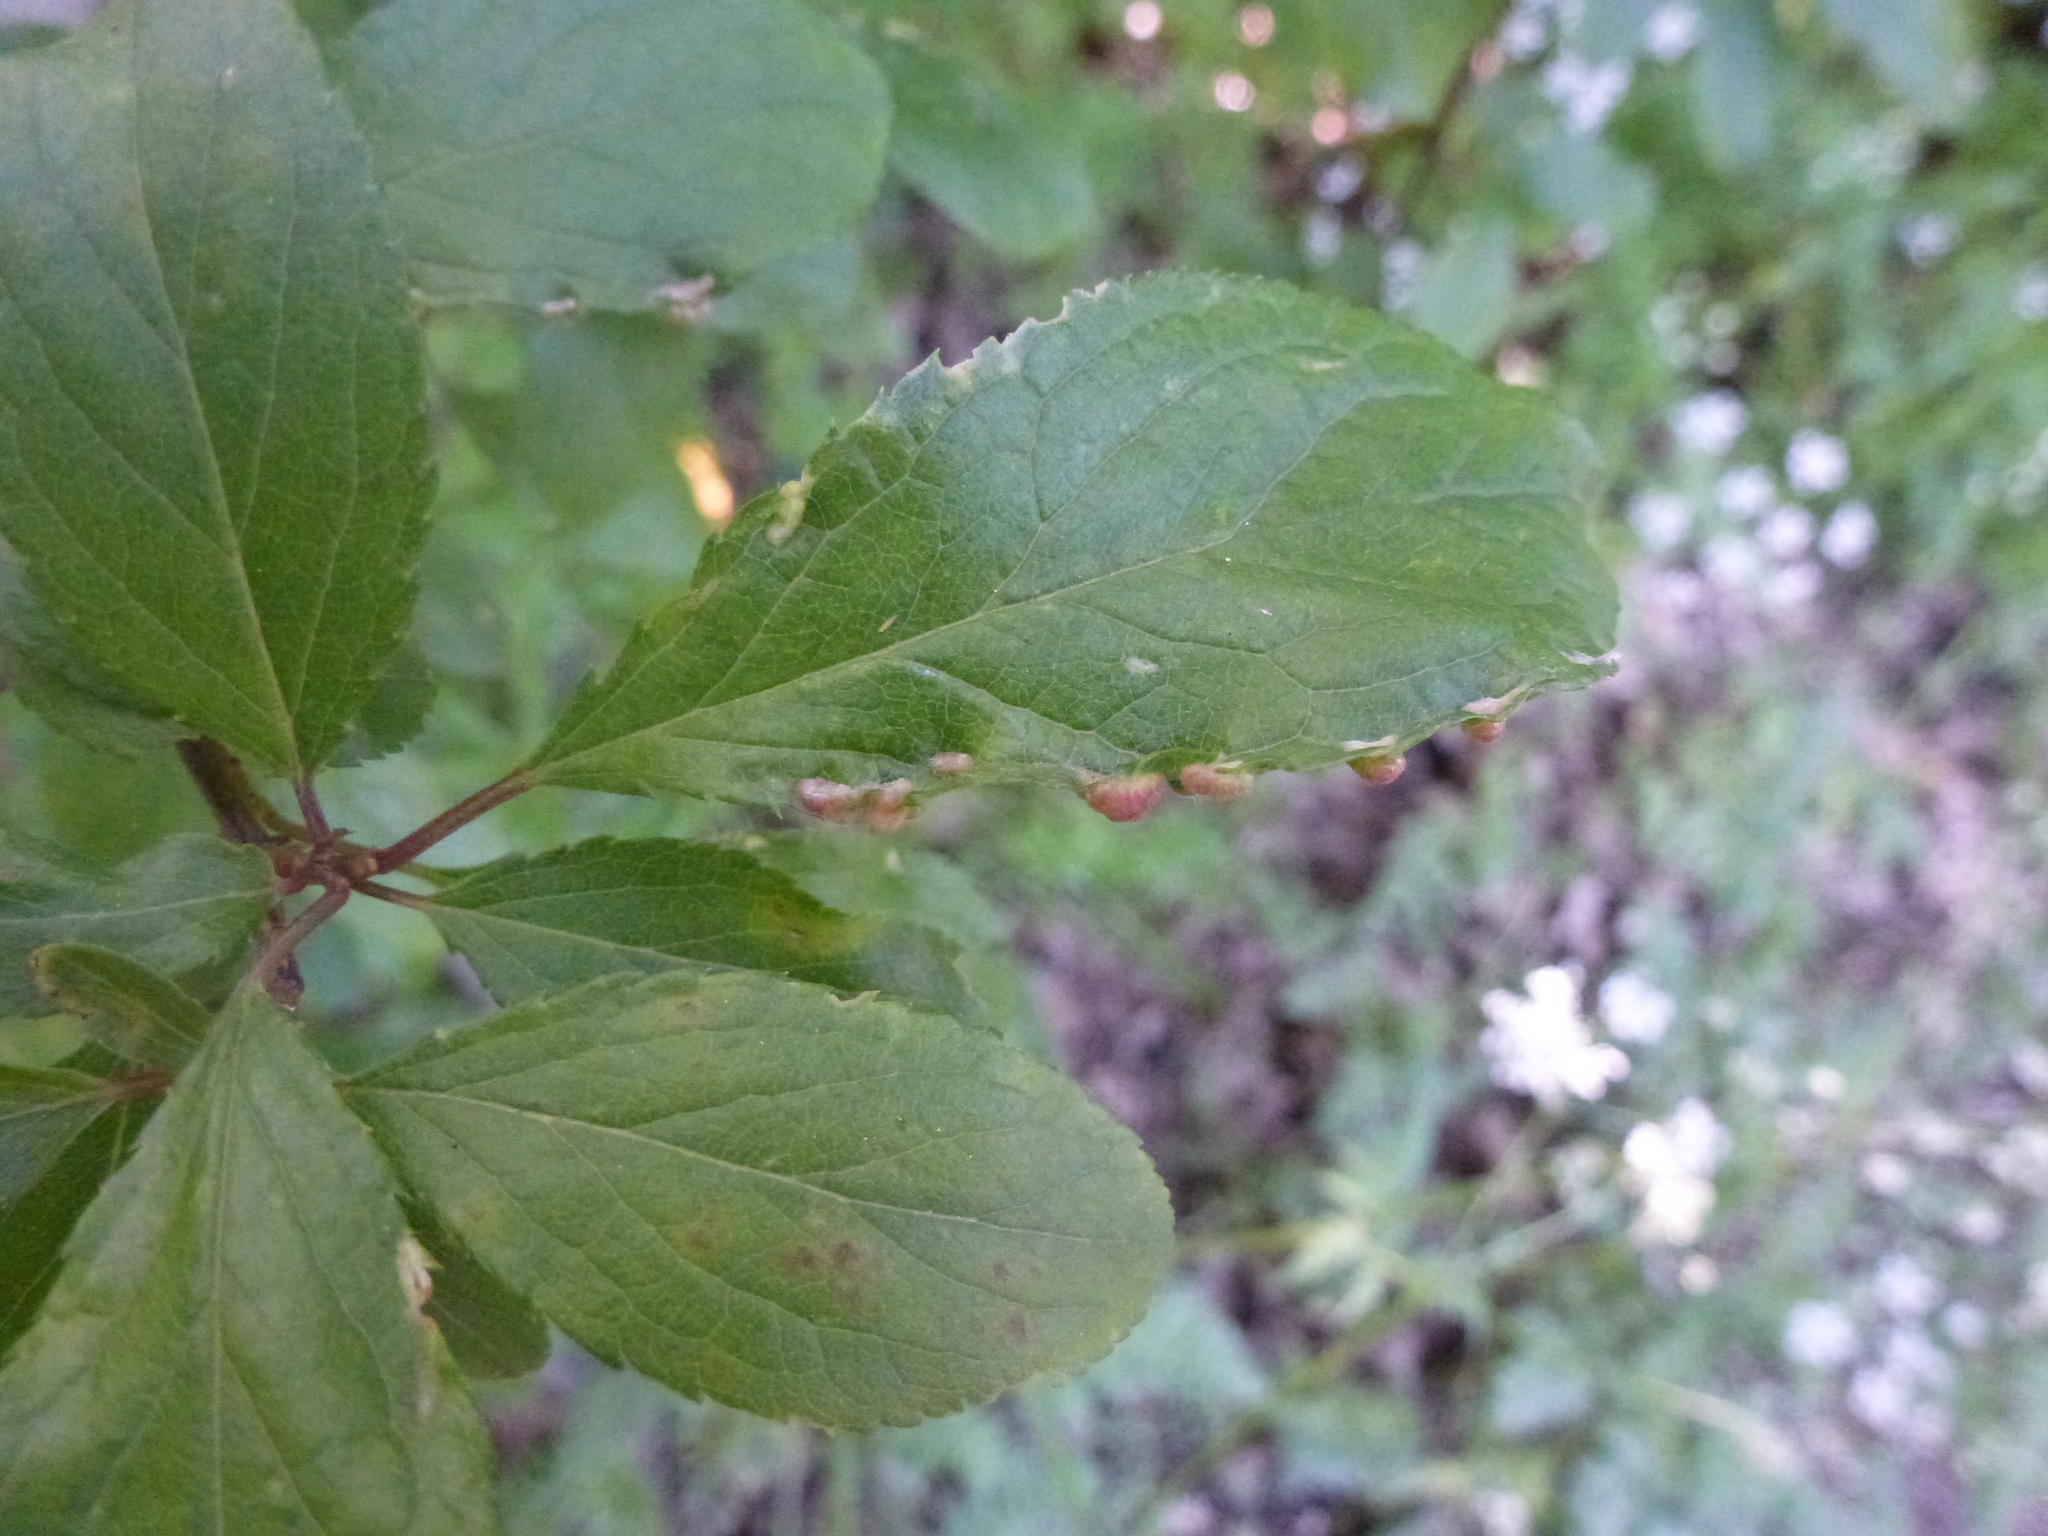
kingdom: Animalia
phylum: Arthropoda
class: Arachnida
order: Trombidiformes
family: Eriophyidae
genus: Eriophyes
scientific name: Eriophyes similis
